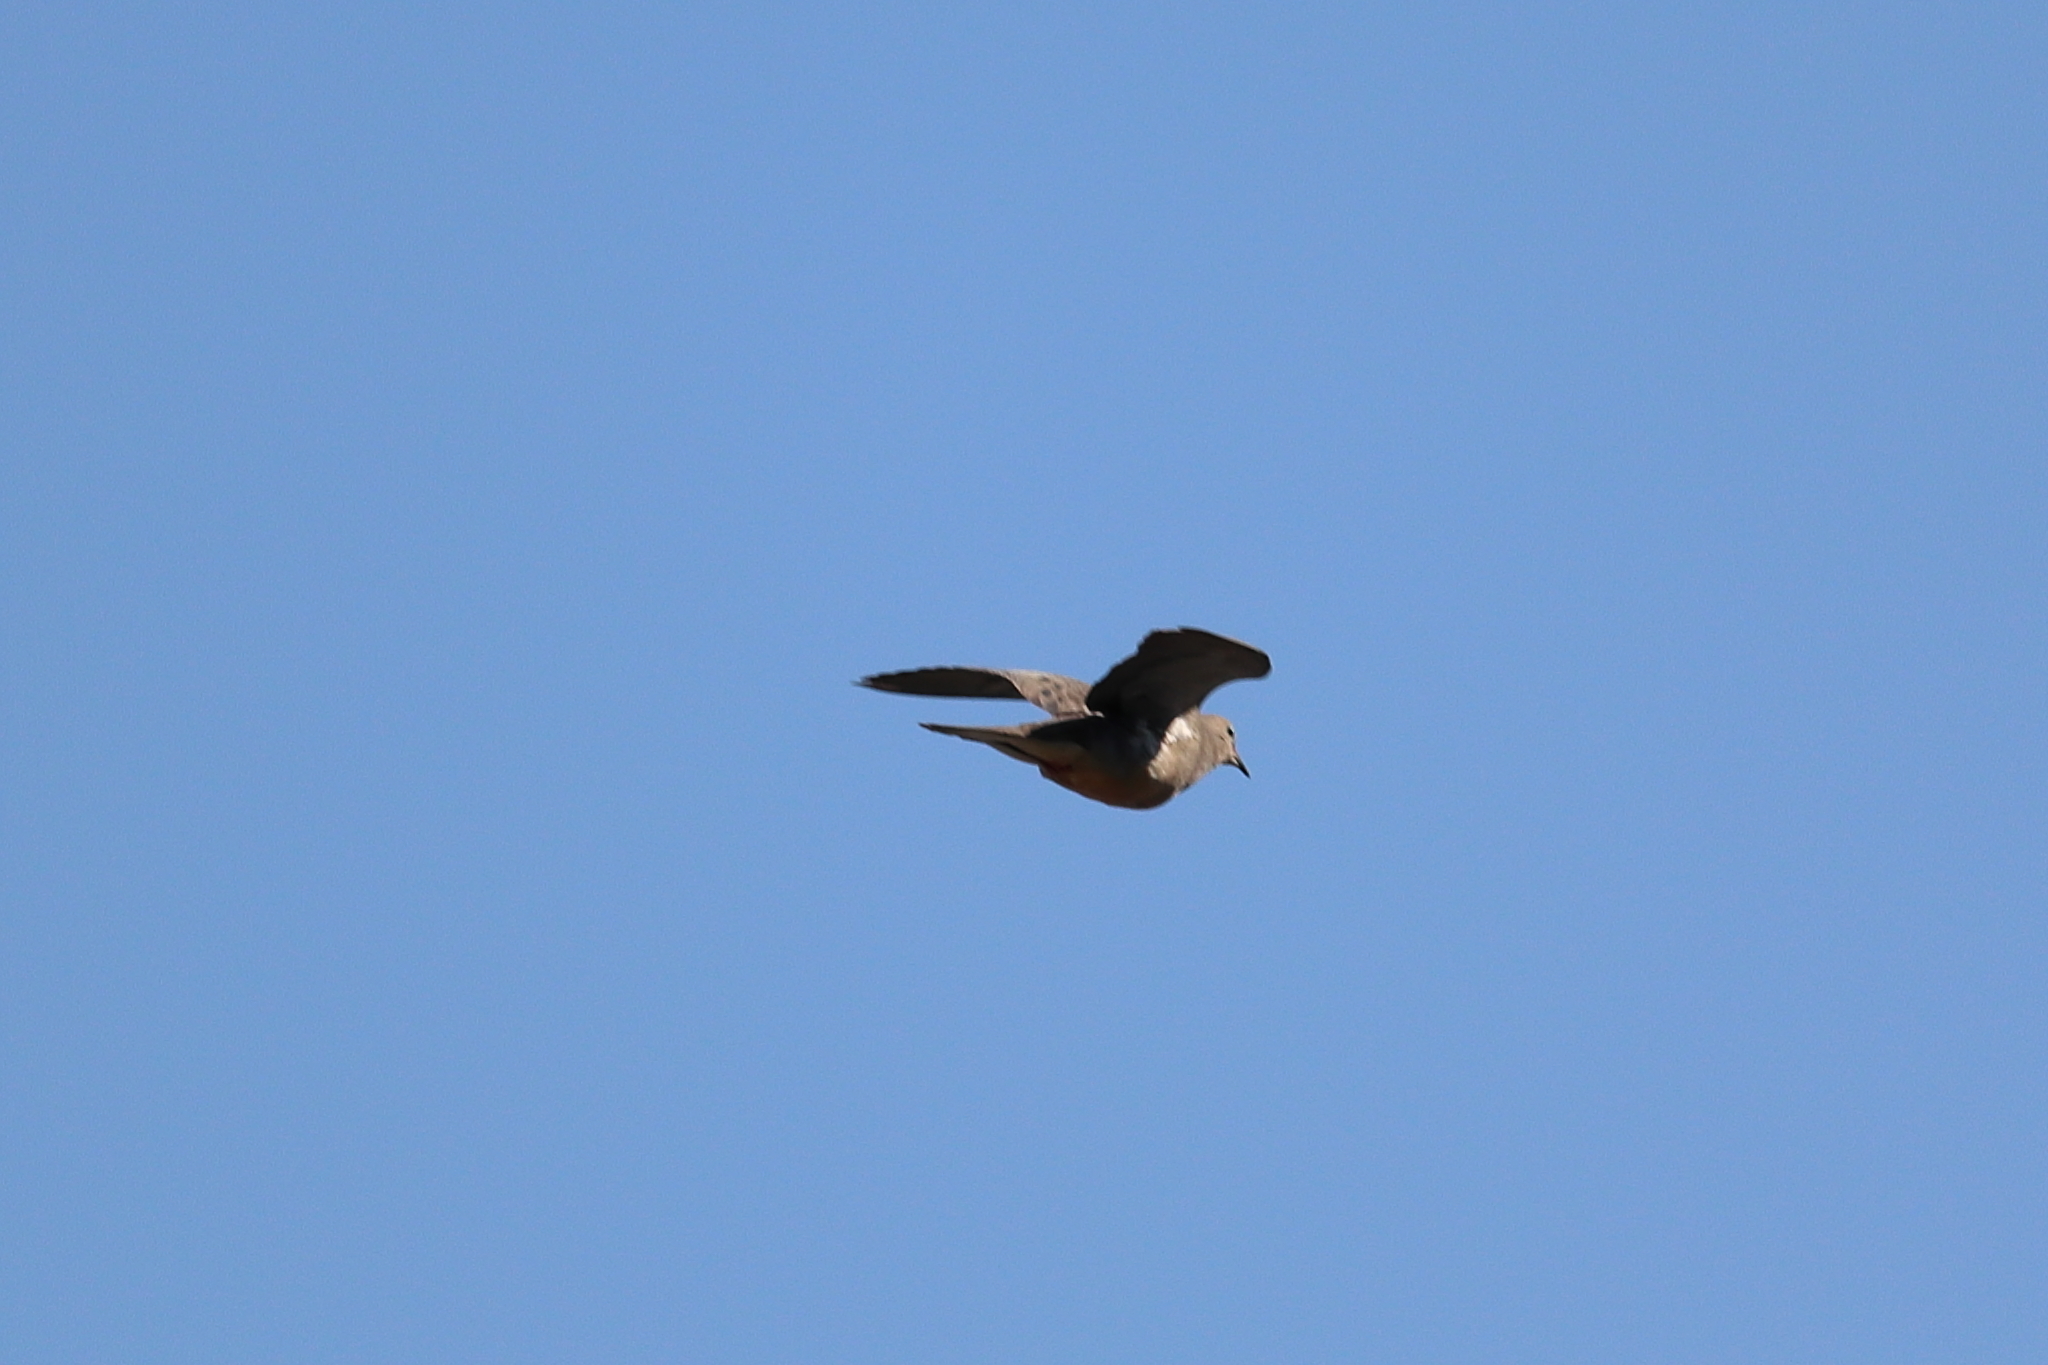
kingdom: Animalia
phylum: Chordata
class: Aves
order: Columbiformes
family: Columbidae
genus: Zenaida
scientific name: Zenaida macroura
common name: Mourning dove
